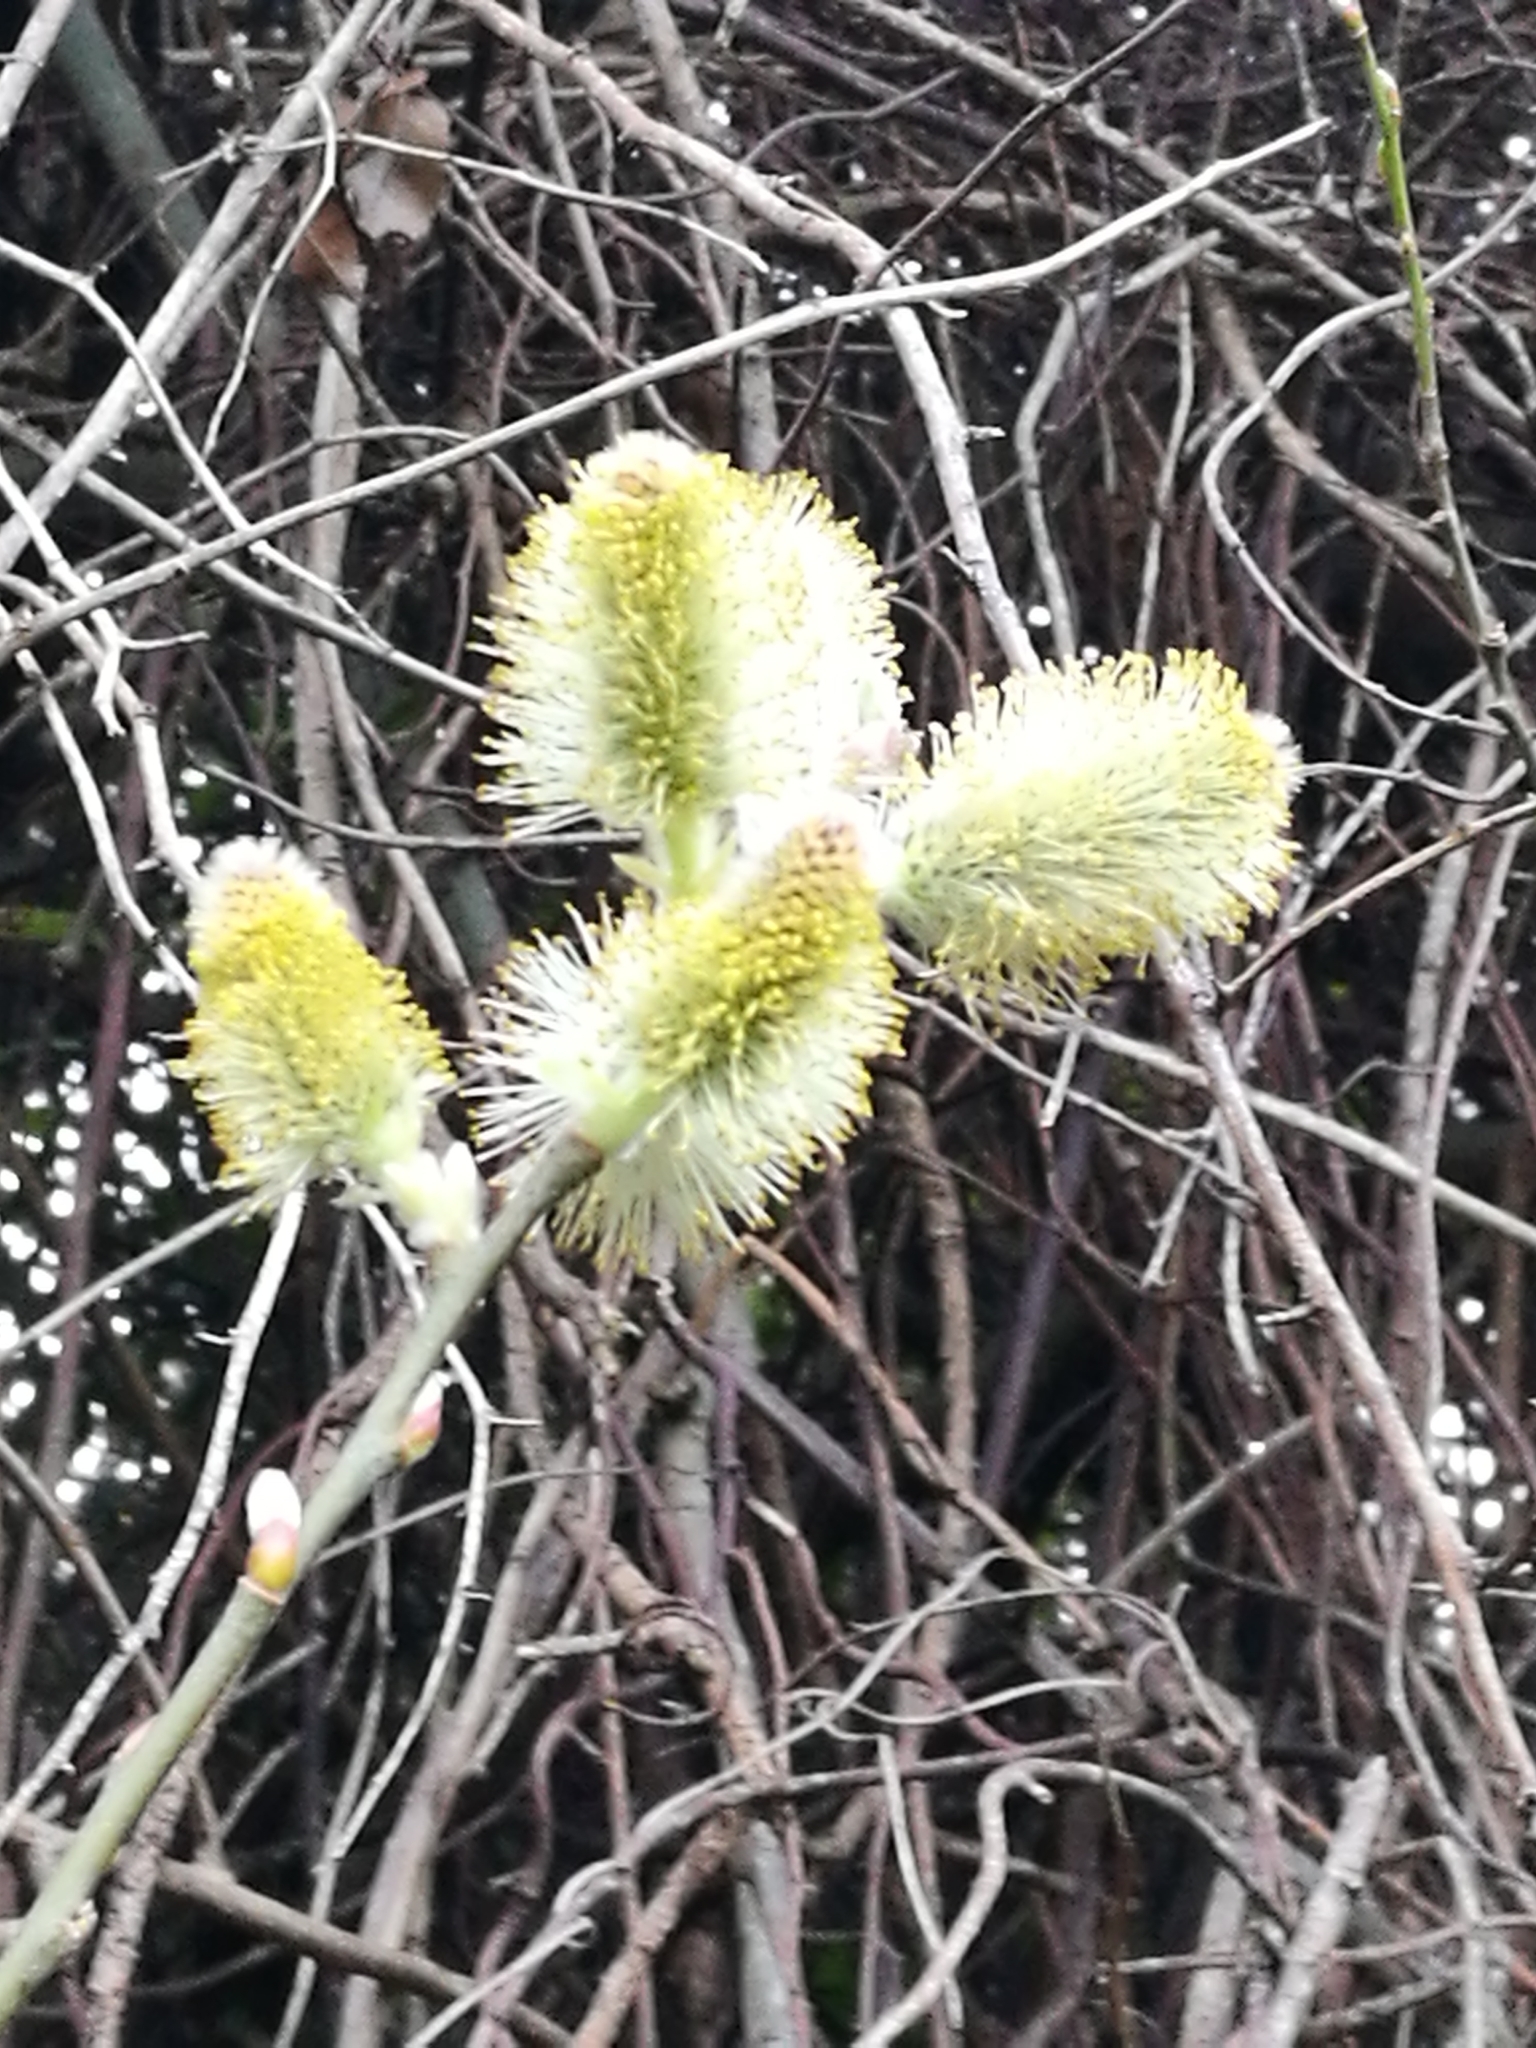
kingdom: Plantae
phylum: Tracheophyta
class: Magnoliopsida
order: Malpighiales
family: Salicaceae
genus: Salix
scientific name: Salix cinerea
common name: Common sallow
